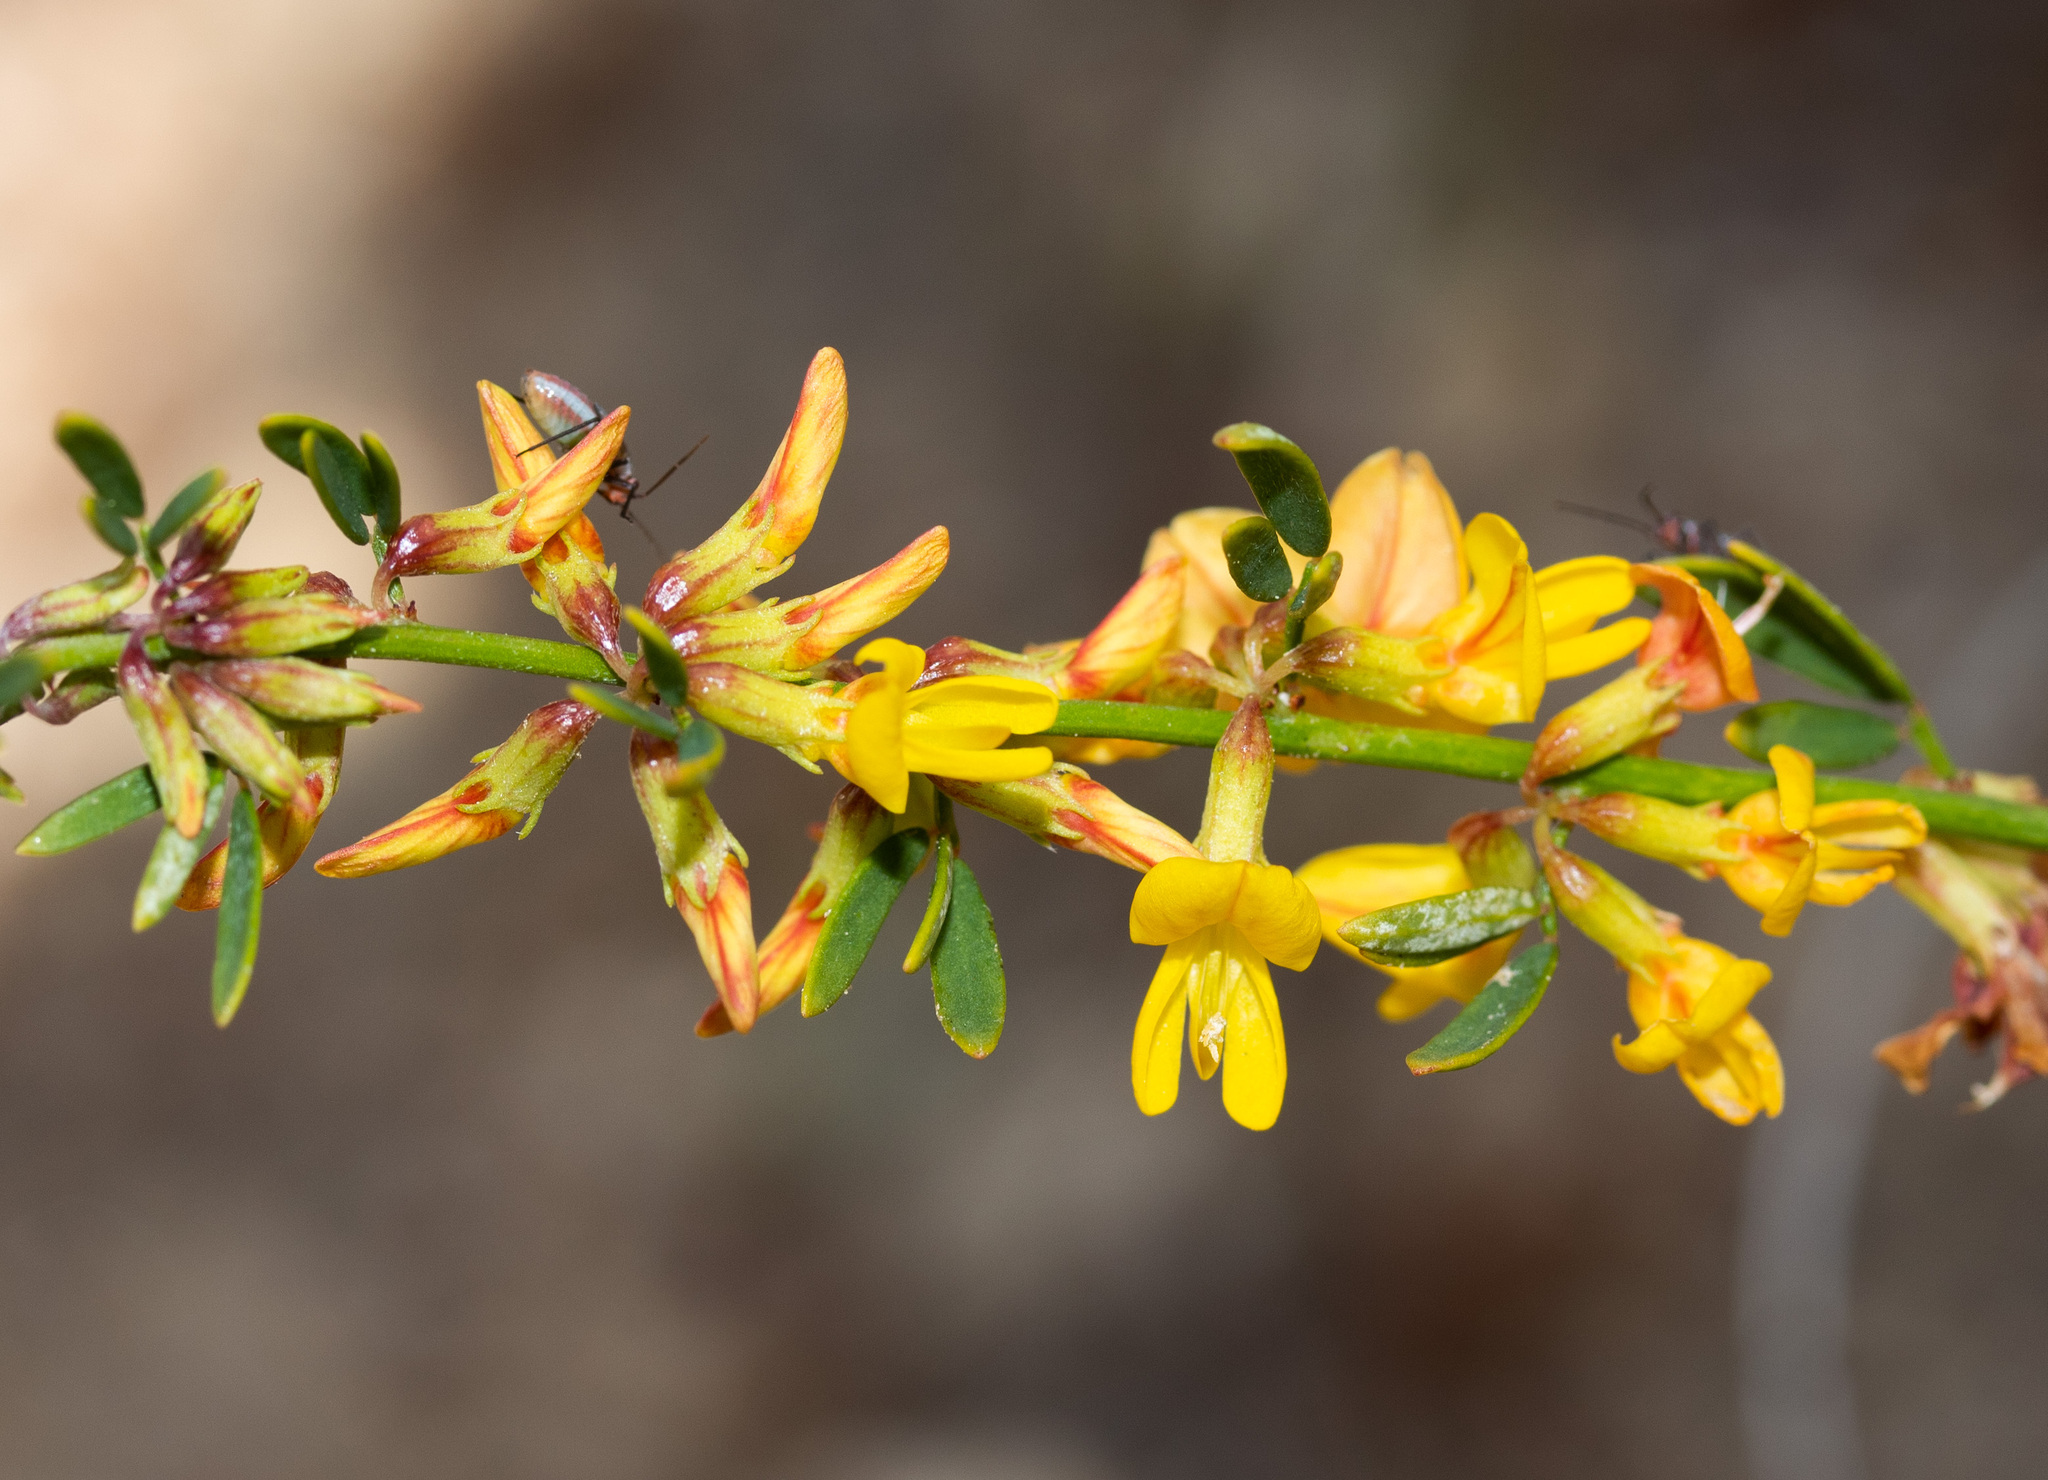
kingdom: Plantae
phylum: Tracheophyta
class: Magnoliopsida
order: Fabales
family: Fabaceae
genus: Acmispon
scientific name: Acmispon glaber
